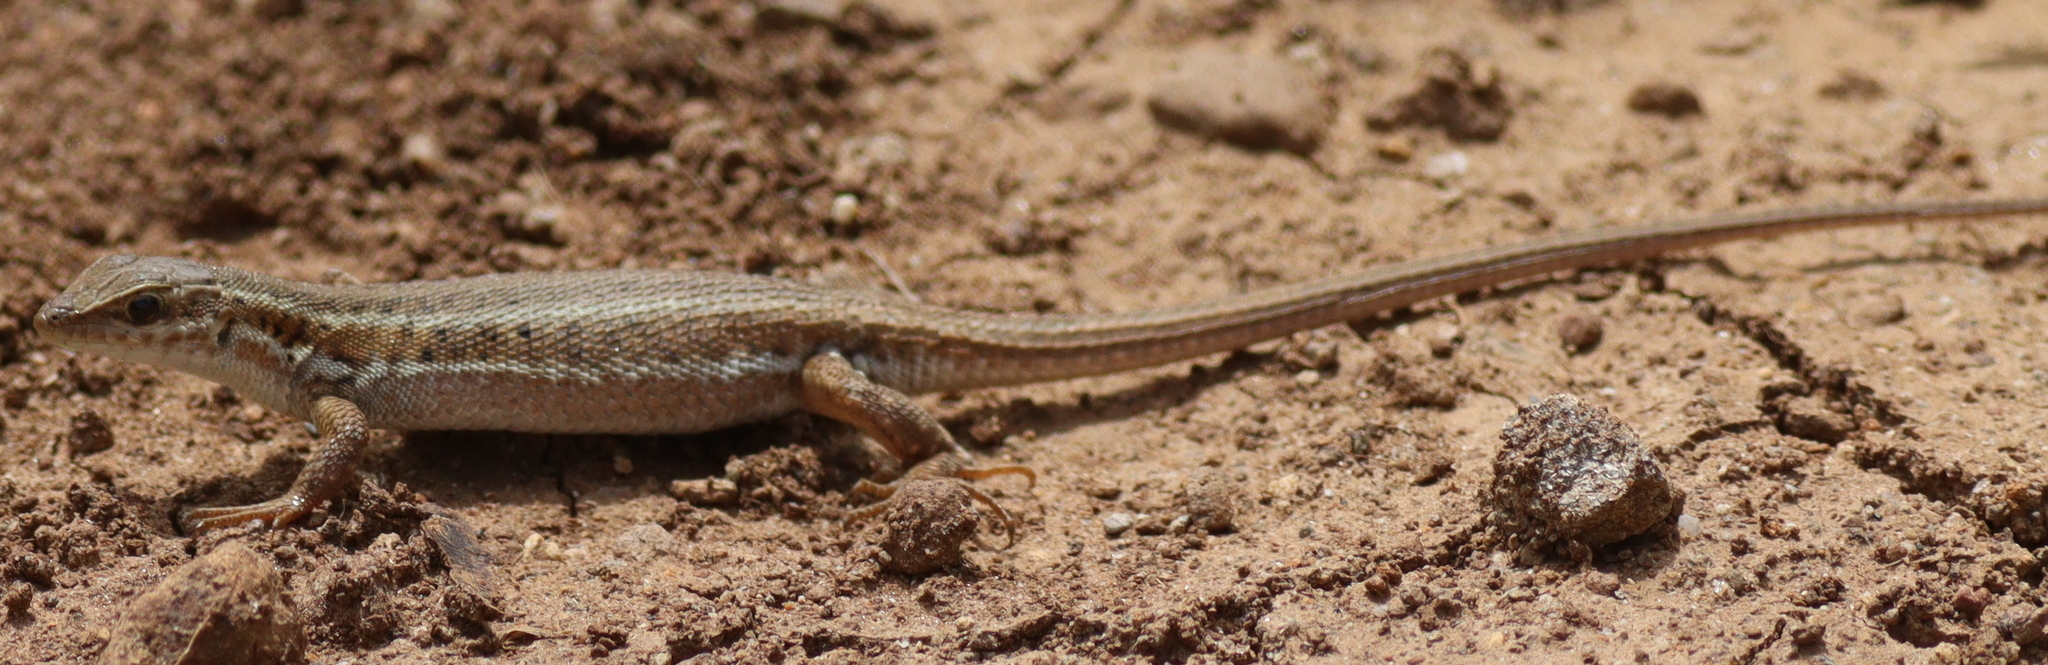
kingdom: Animalia
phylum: Chordata
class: Squamata
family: Lacertidae
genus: Ophisops
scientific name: Ophisops elegans
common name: Snake-eyed lizard
